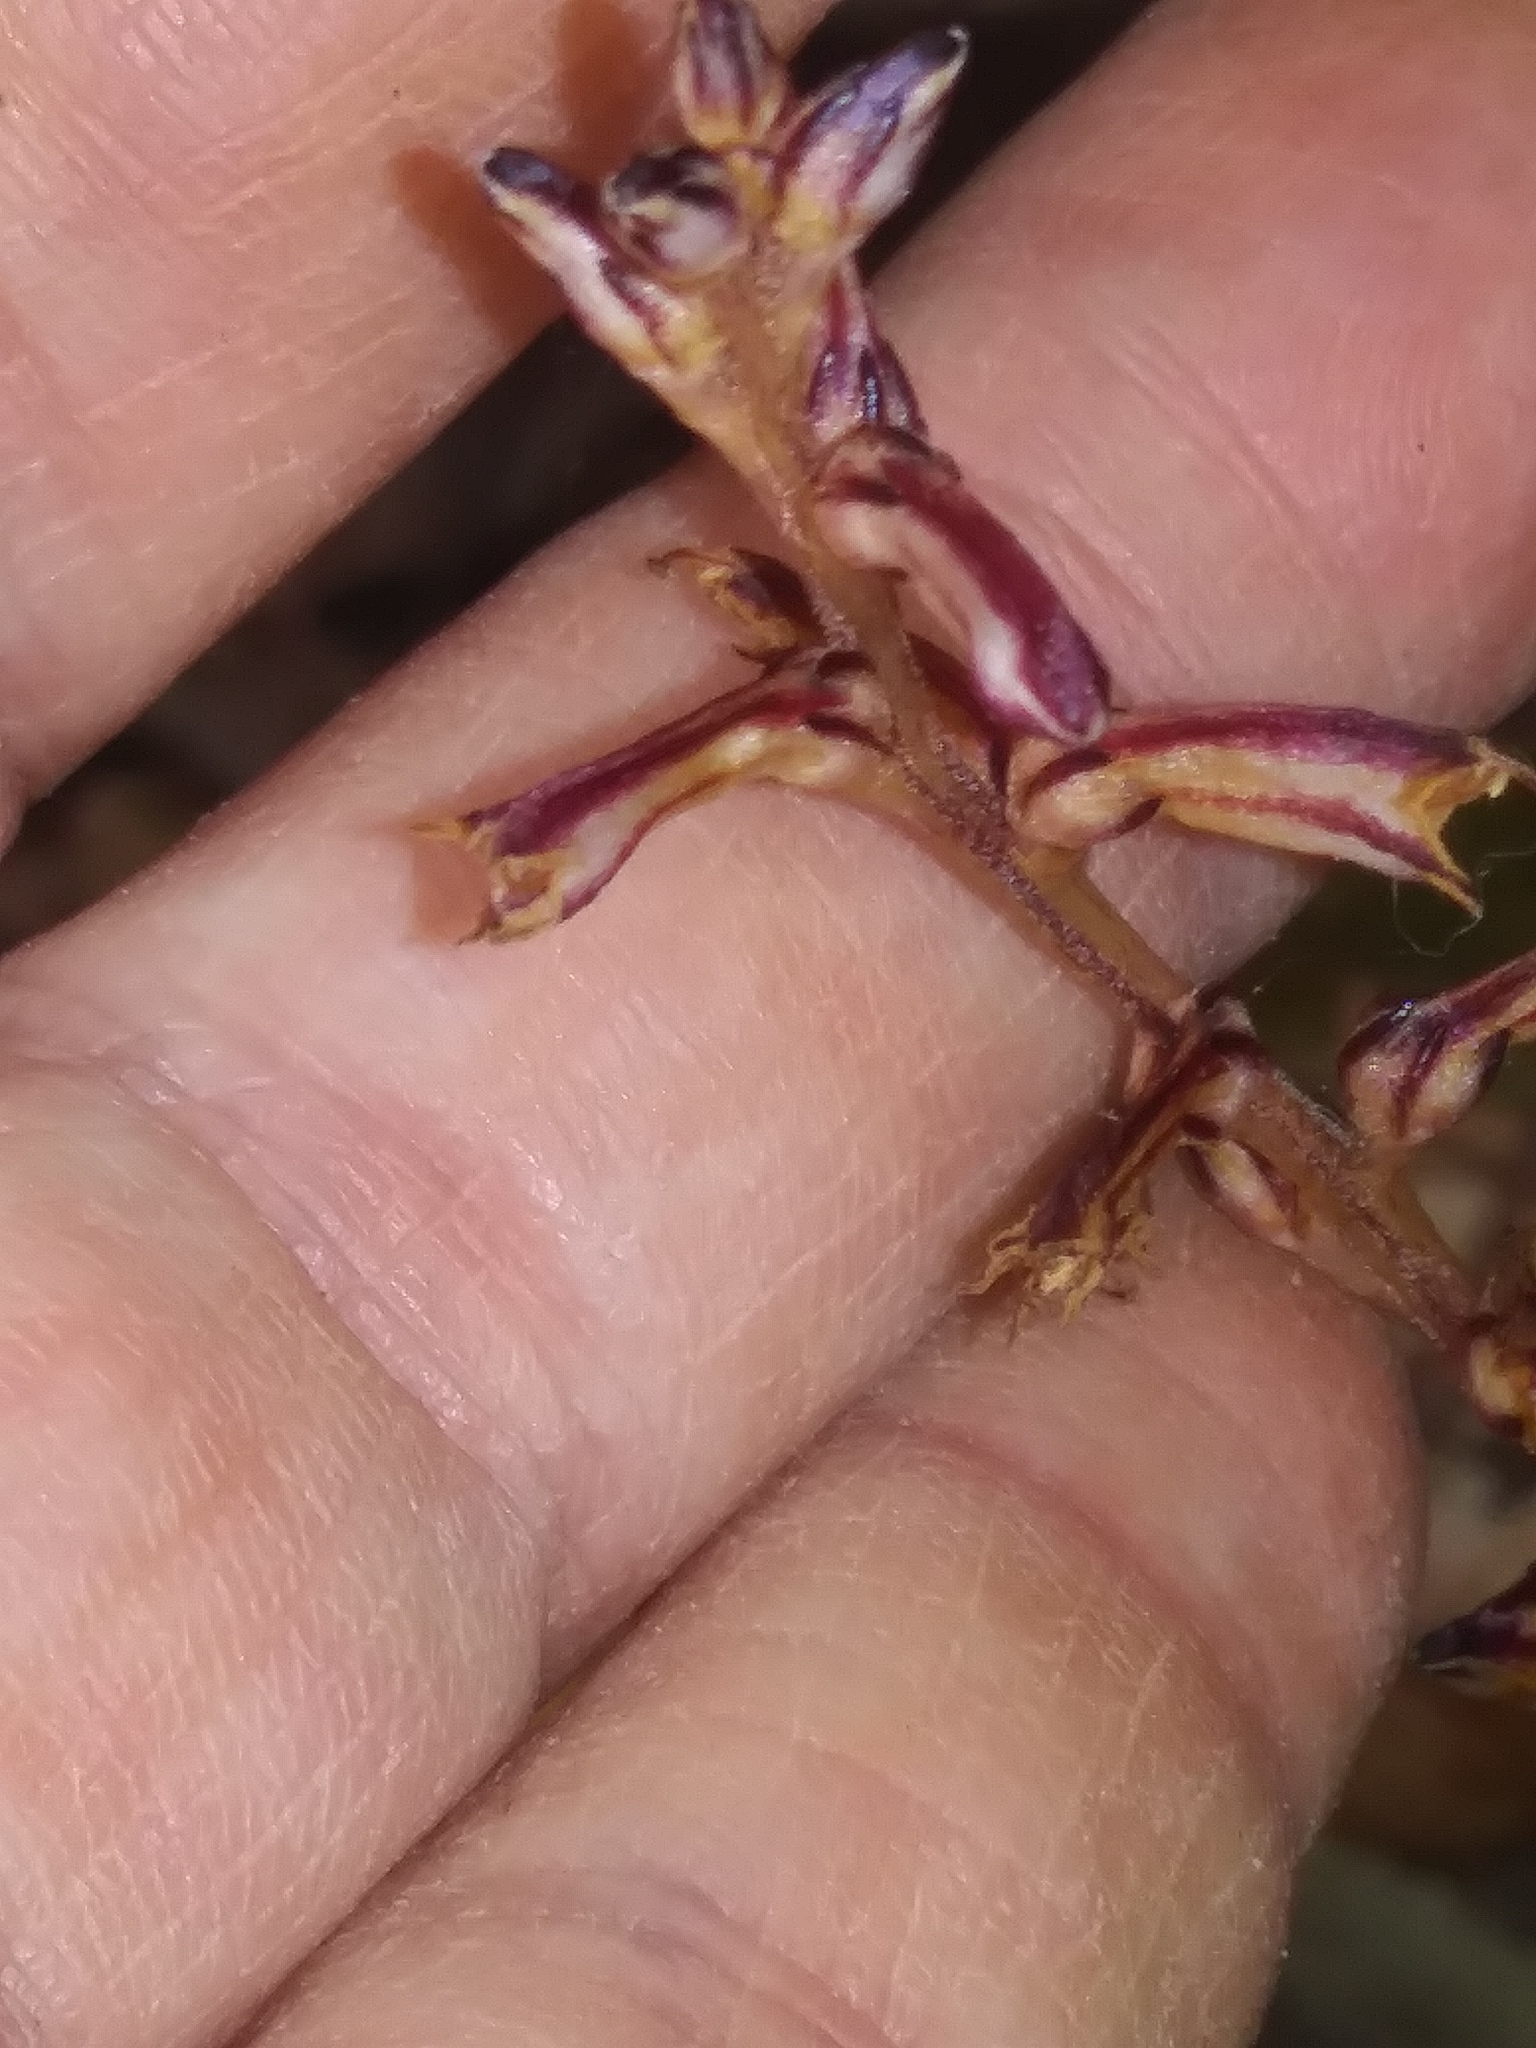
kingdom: Plantae
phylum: Tracheophyta
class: Magnoliopsida
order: Lamiales
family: Orobanchaceae
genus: Epifagus
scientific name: Epifagus virginiana
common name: Beechdrops
